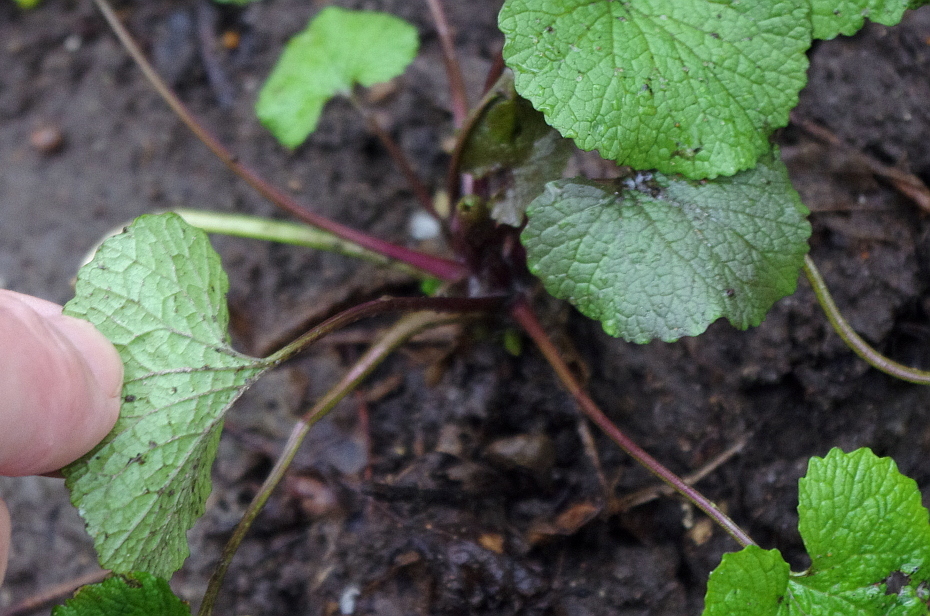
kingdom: Plantae
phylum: Tracheophyta
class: Magnoliopsida
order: Brassicales
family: Brassicaceae
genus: Alliaria
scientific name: Alliaria petiolata
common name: Garlic mustard
